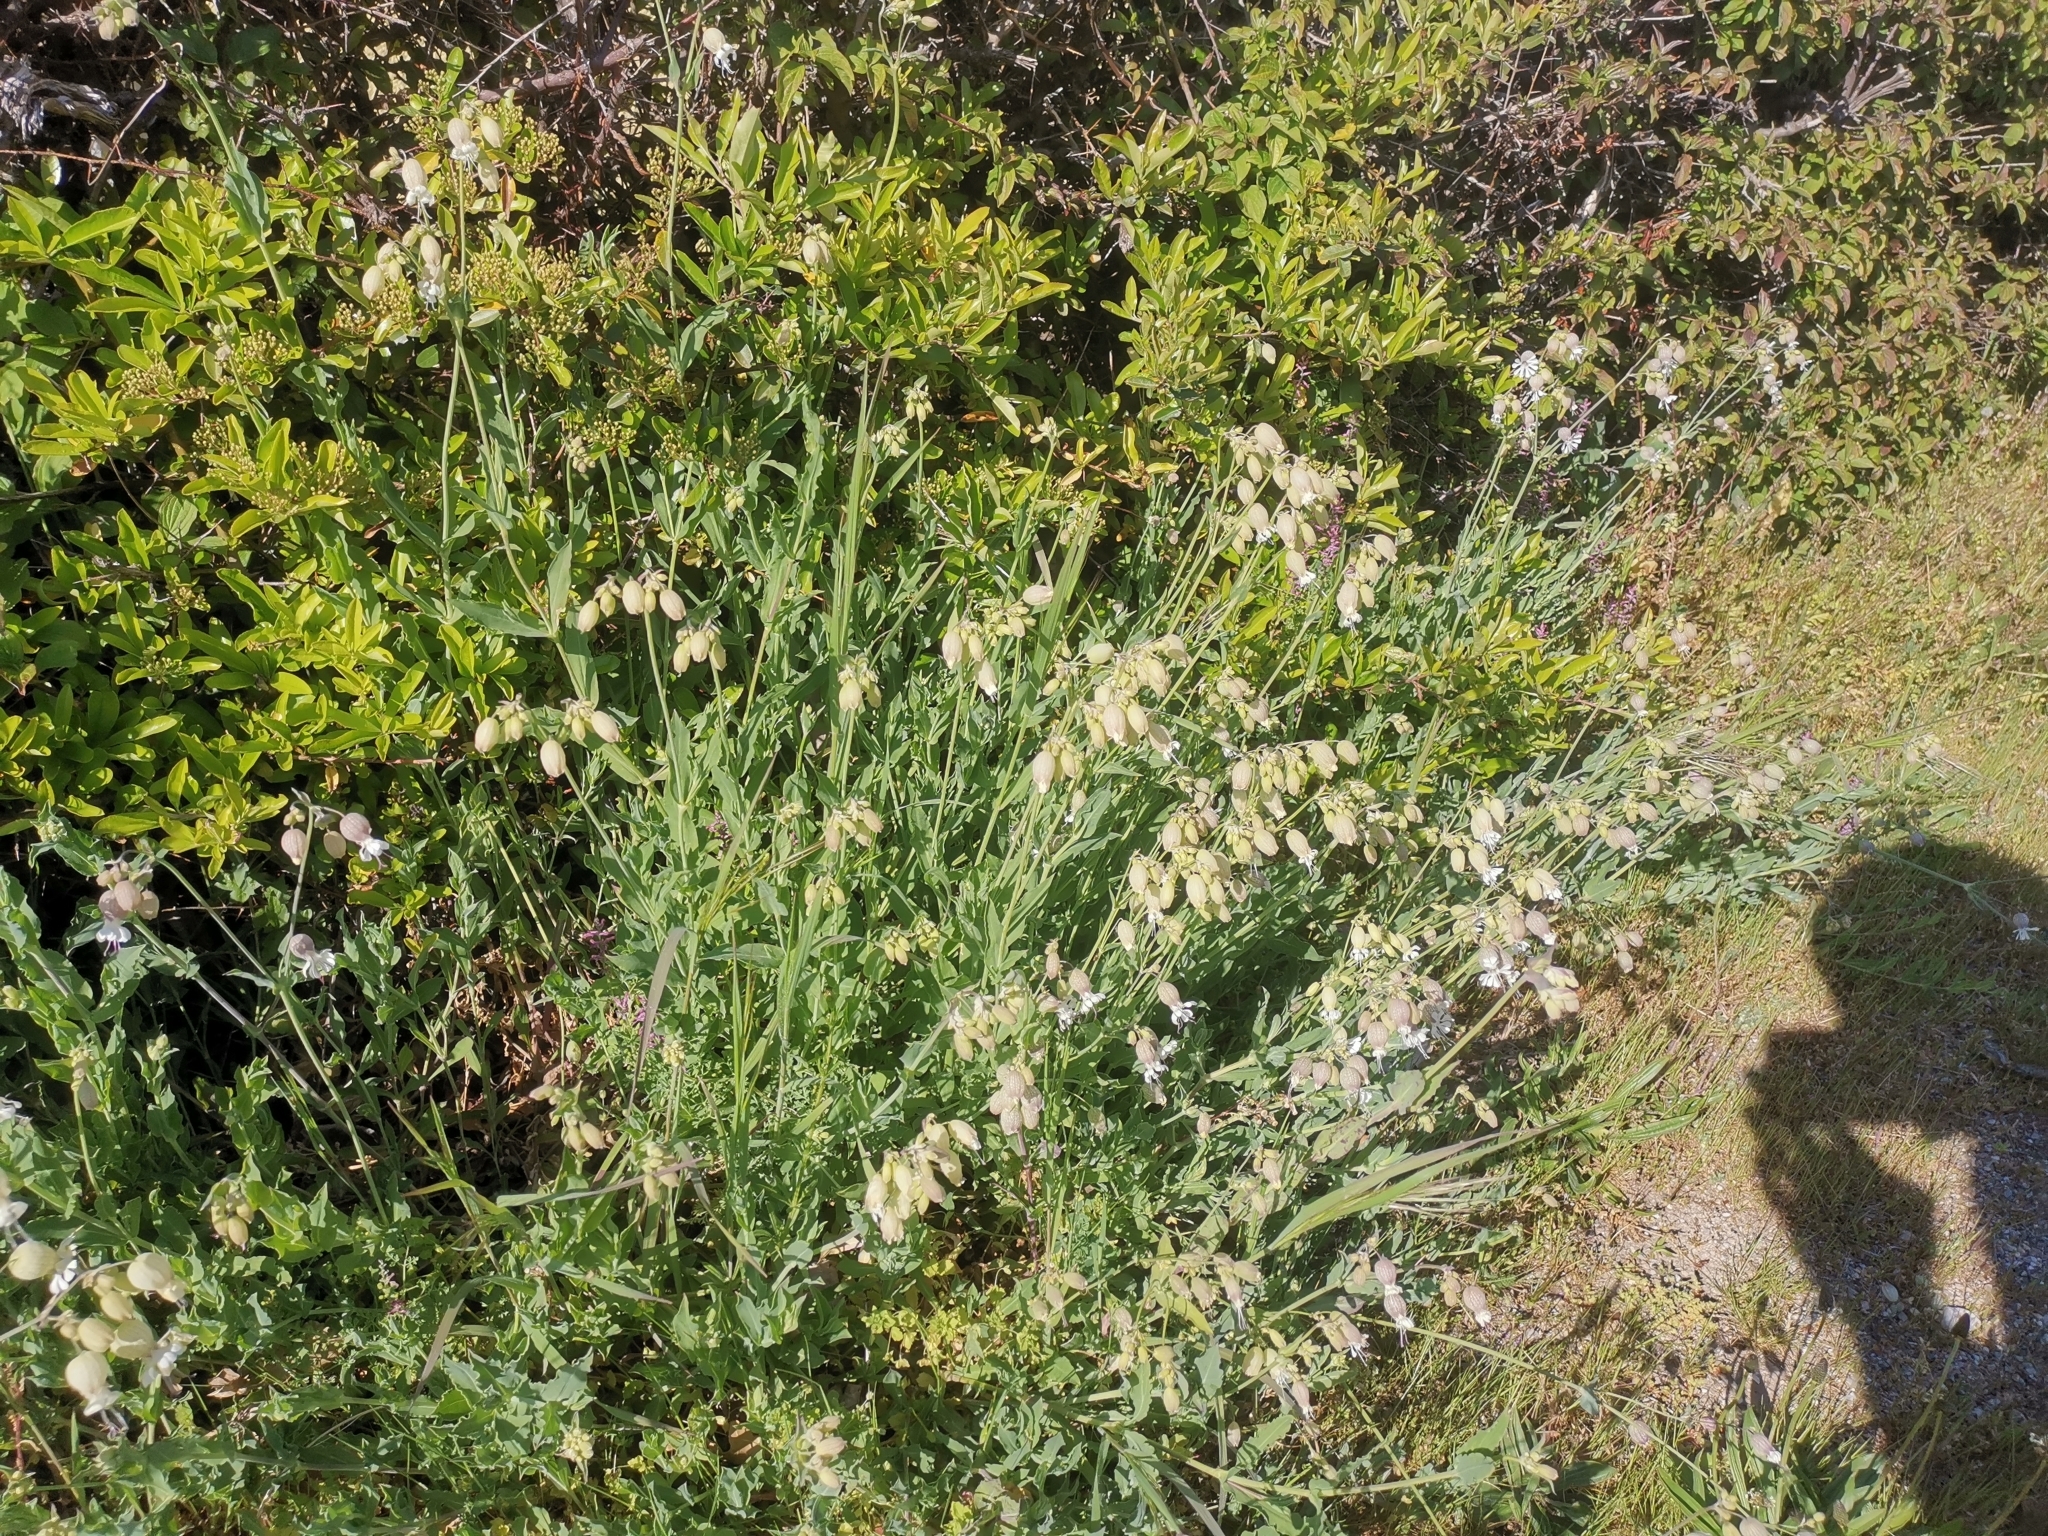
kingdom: Plantae
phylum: Tracheophyta
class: Magnoliopsida
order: Caryophyllales
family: Caryophyllaceae
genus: Silene
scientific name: Silene vulgaris
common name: Bladder campion
